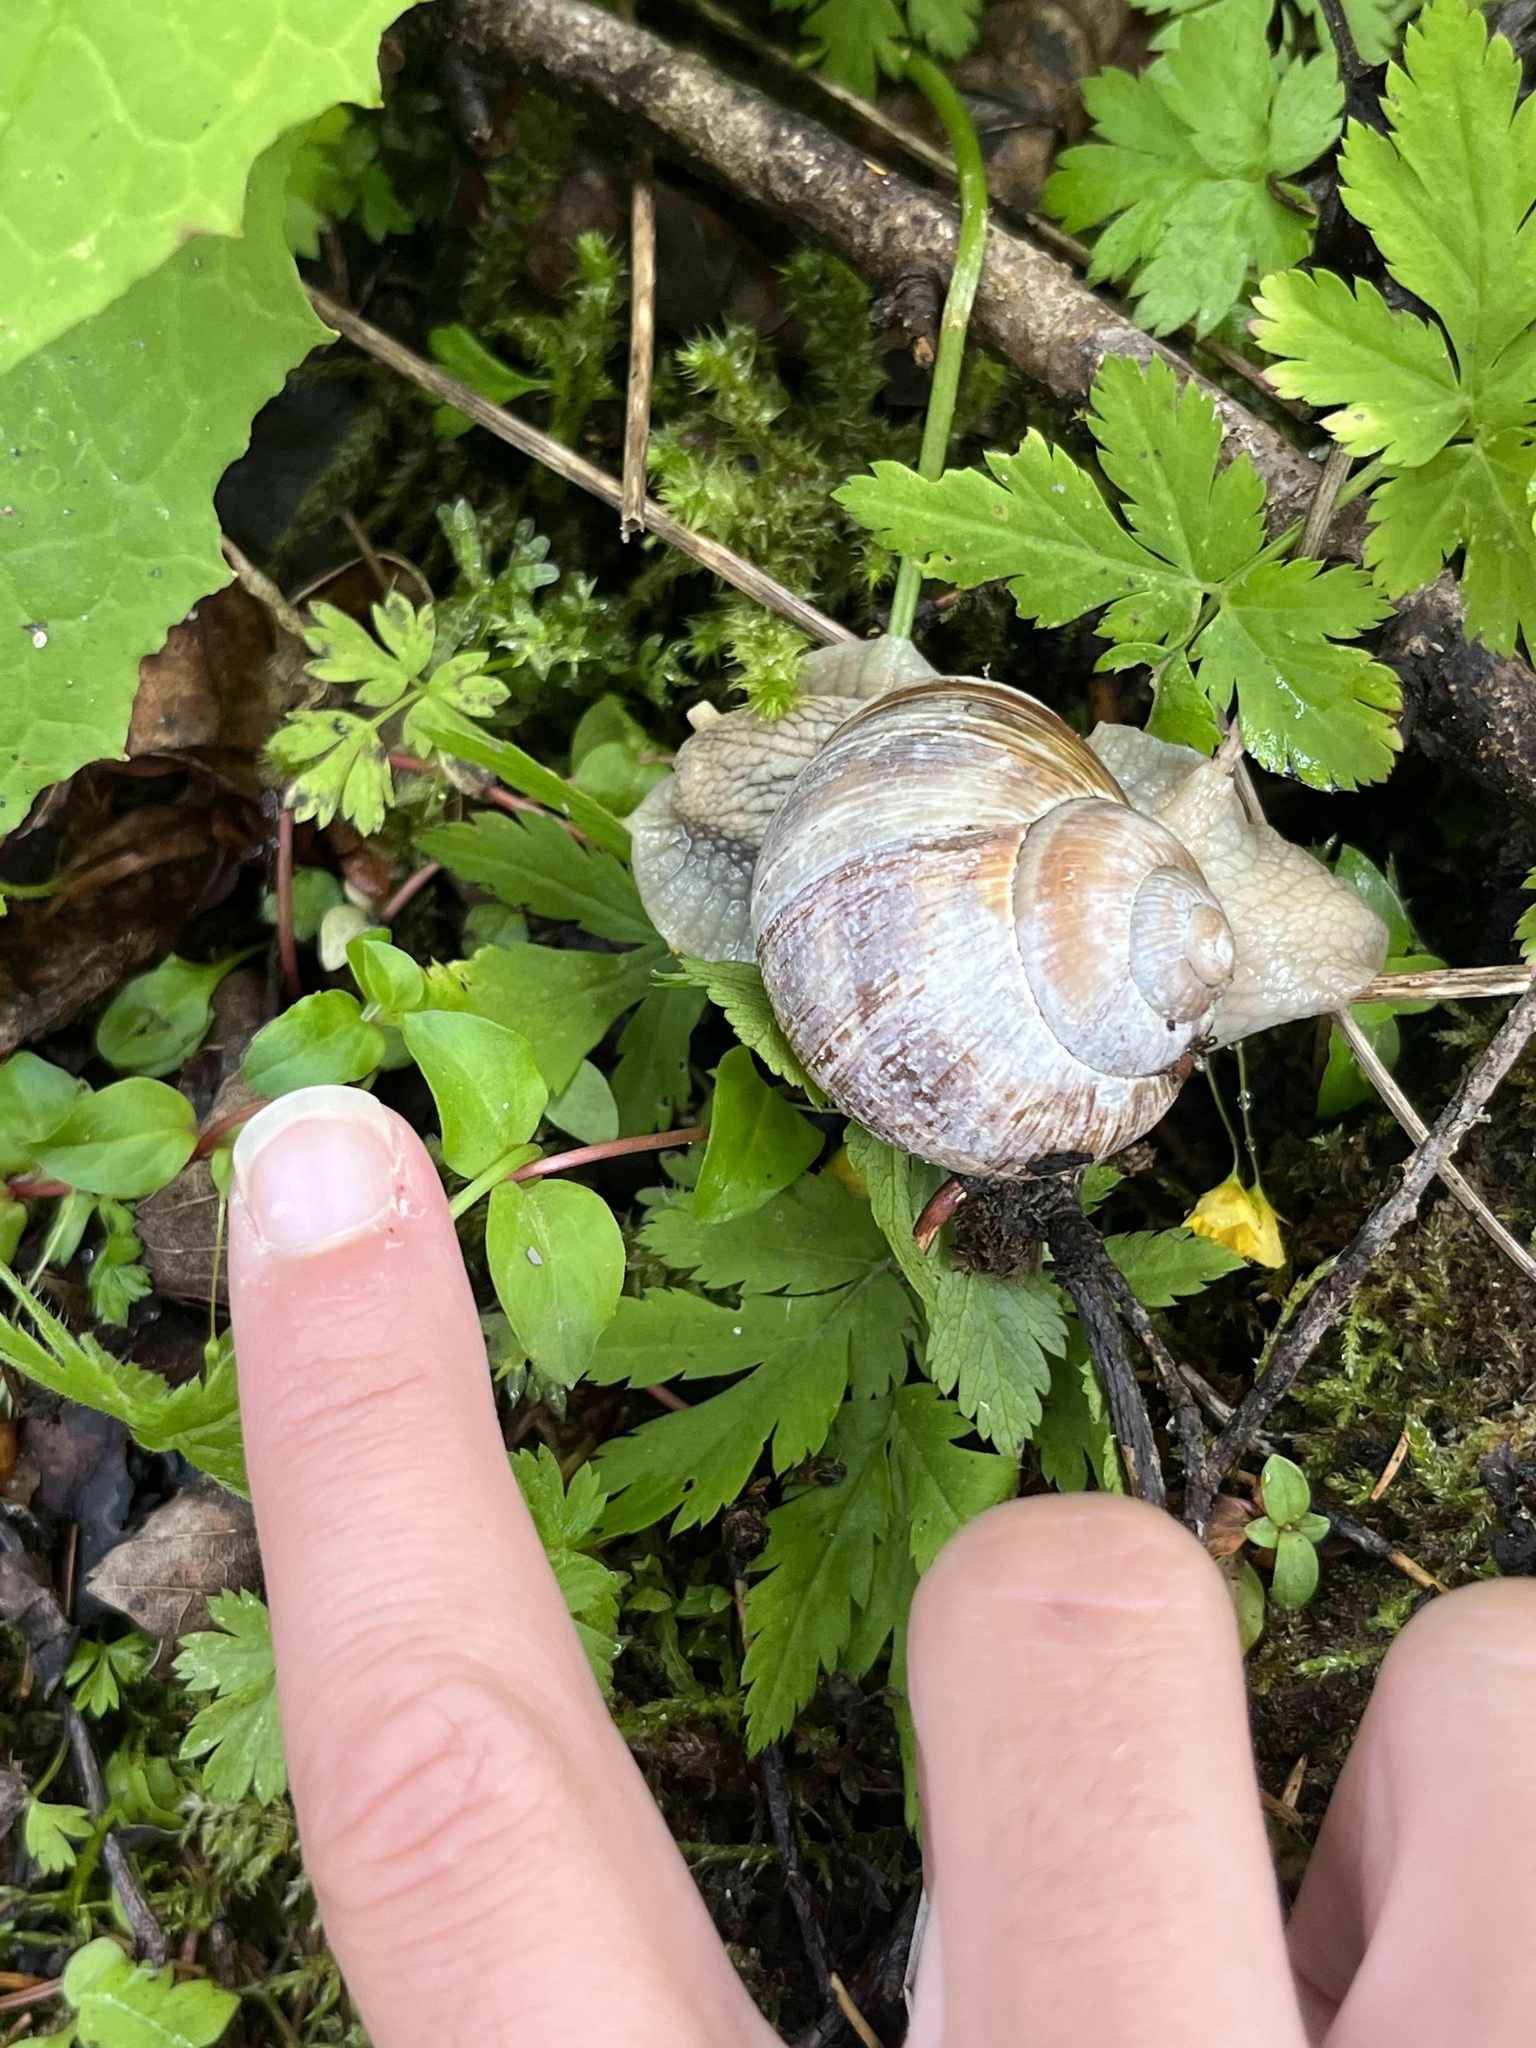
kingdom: Animalia
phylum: Mollusca
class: Gastropoda
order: Stylommatophora
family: Helicidae
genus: Helix
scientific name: Helix pomatia
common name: Roman snail
